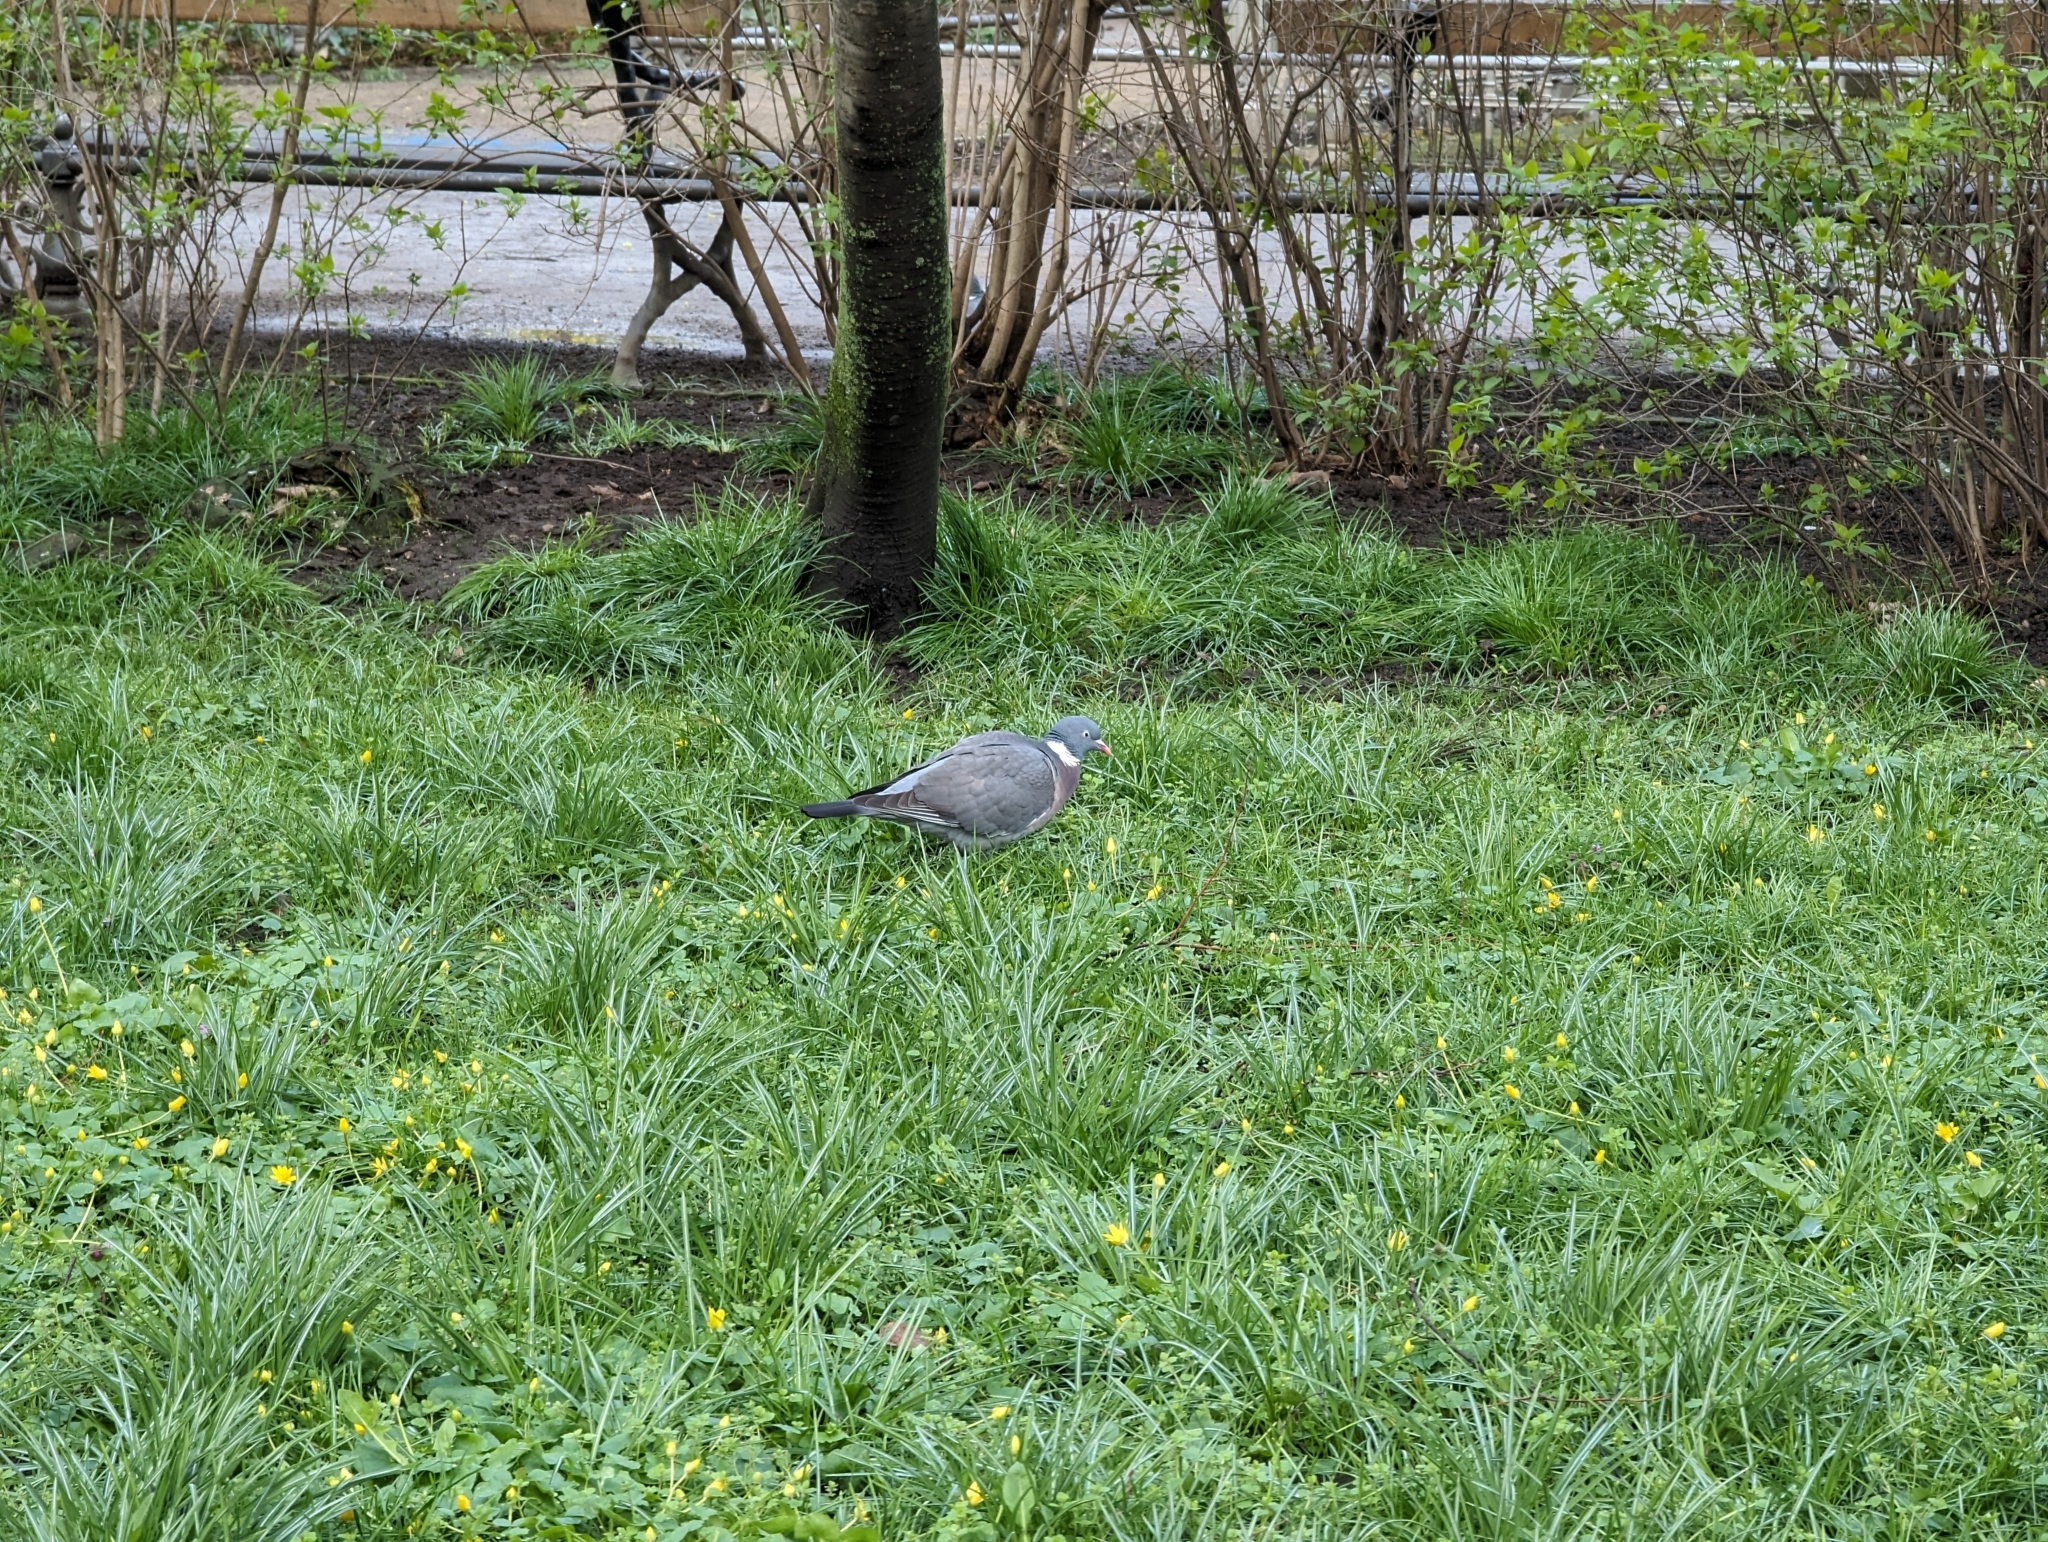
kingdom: Animalia
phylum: Chordata
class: Aves
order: Columbiformes
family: Columbidae
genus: Columba
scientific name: Columba palumbus
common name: Common wood pigeon
